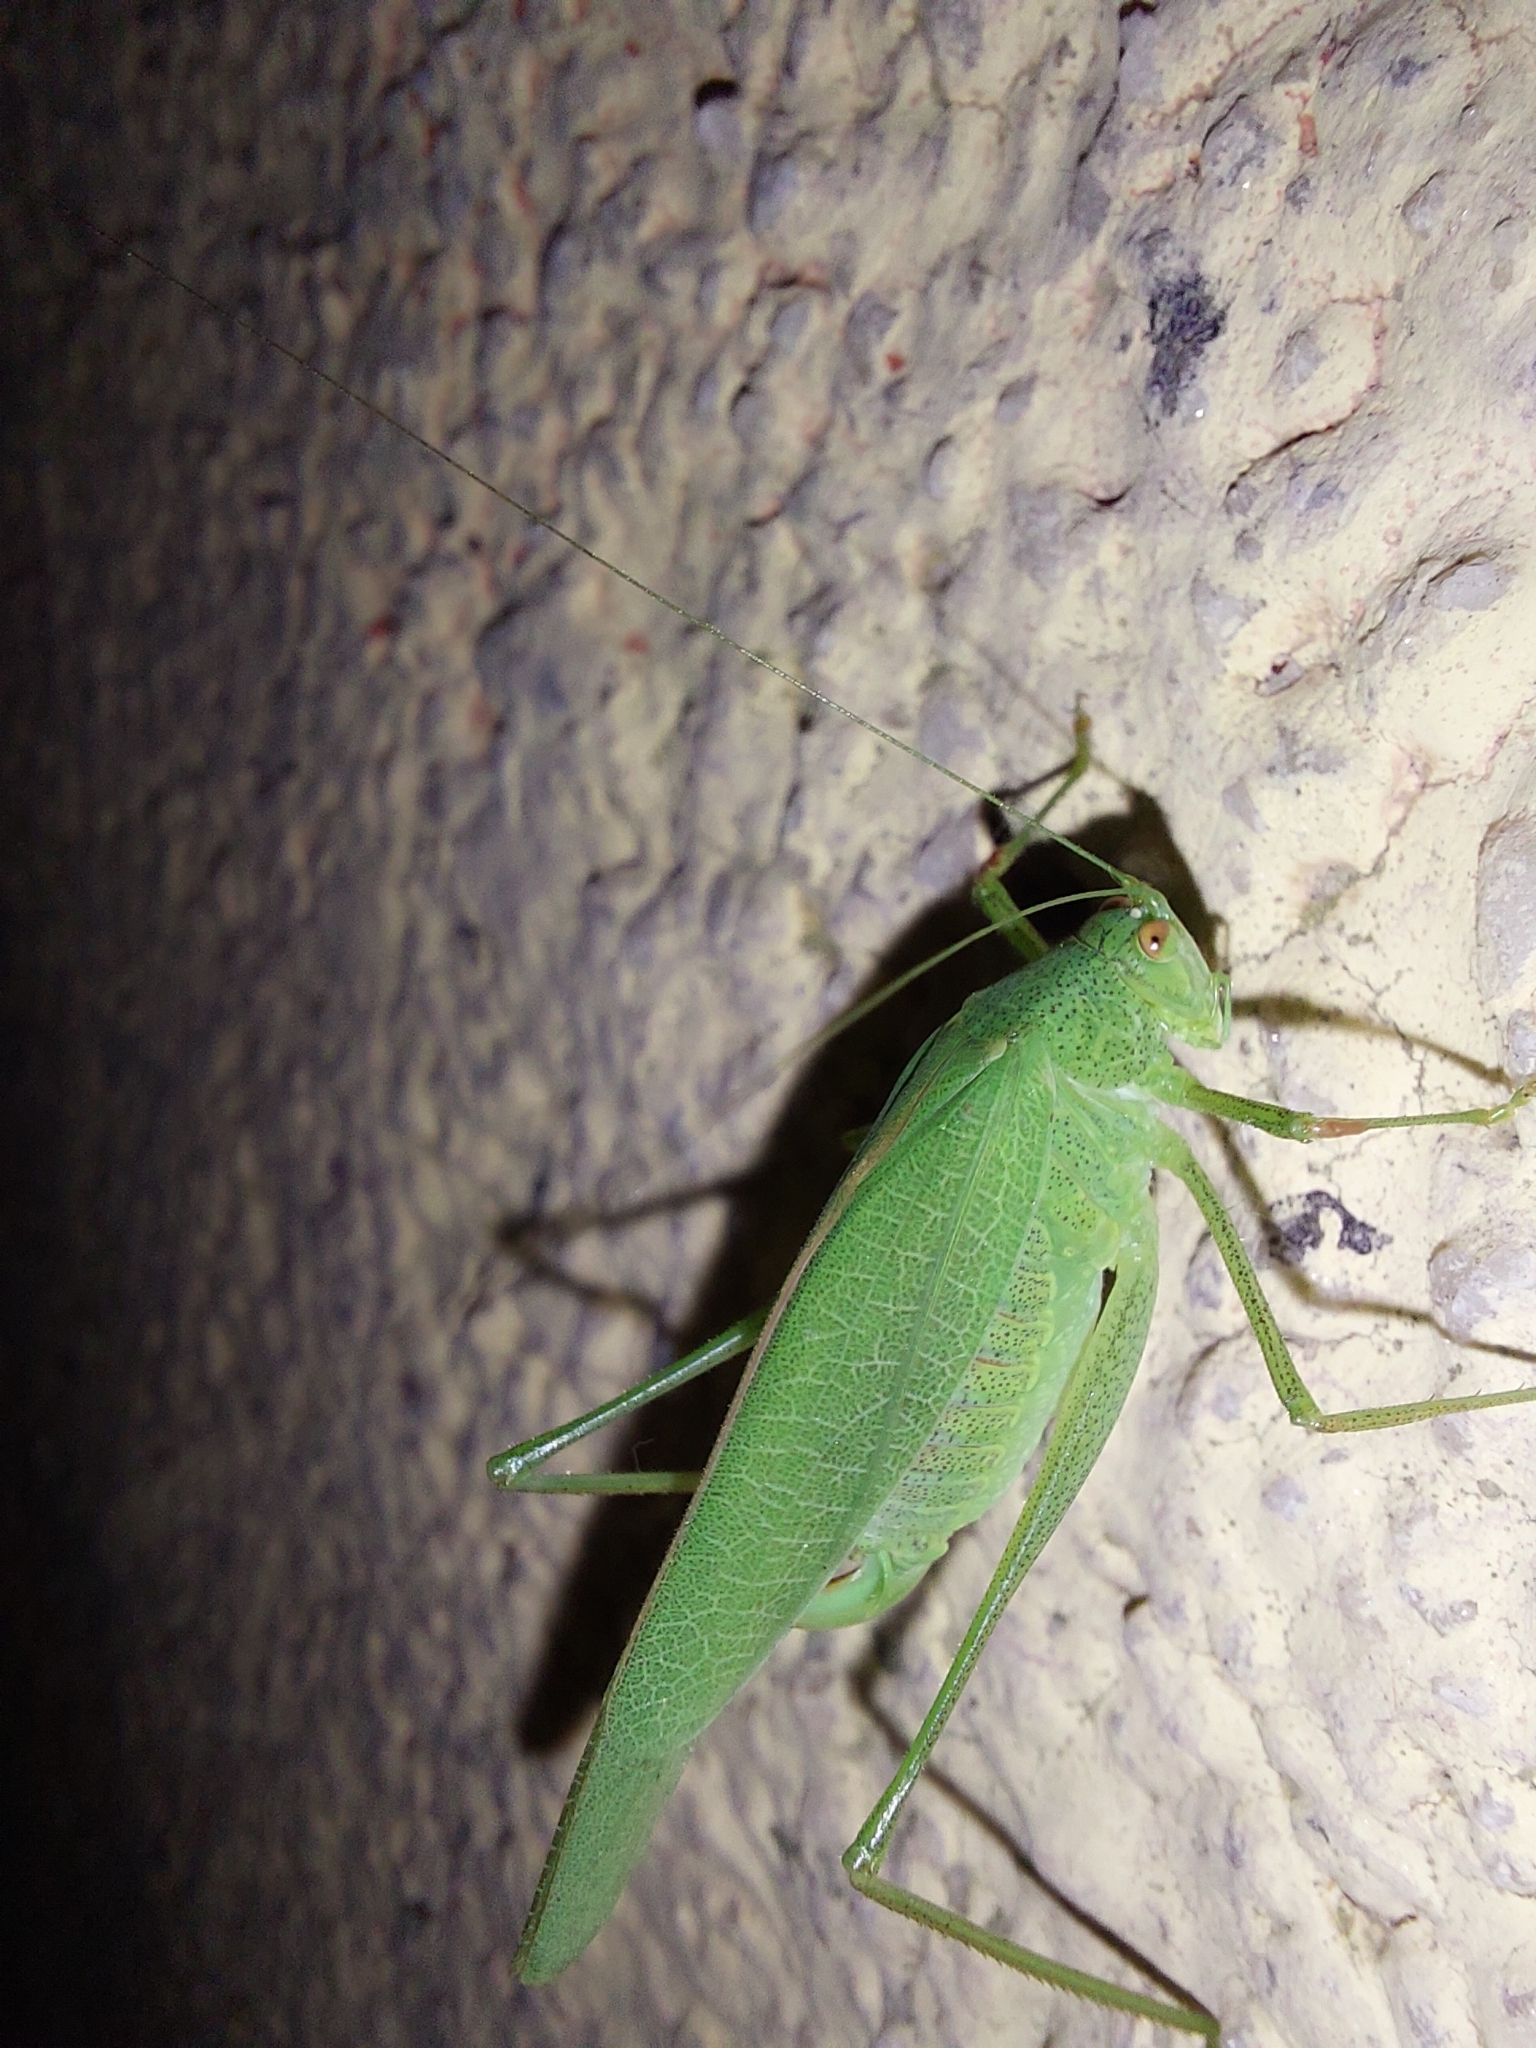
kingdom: Animalia
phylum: Arthropoda
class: Insecta
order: Orthoptera
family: Tettigoniidae
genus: Phaneroptera
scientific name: Phaneroptera nana
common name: Southern sickle bush-cricket
